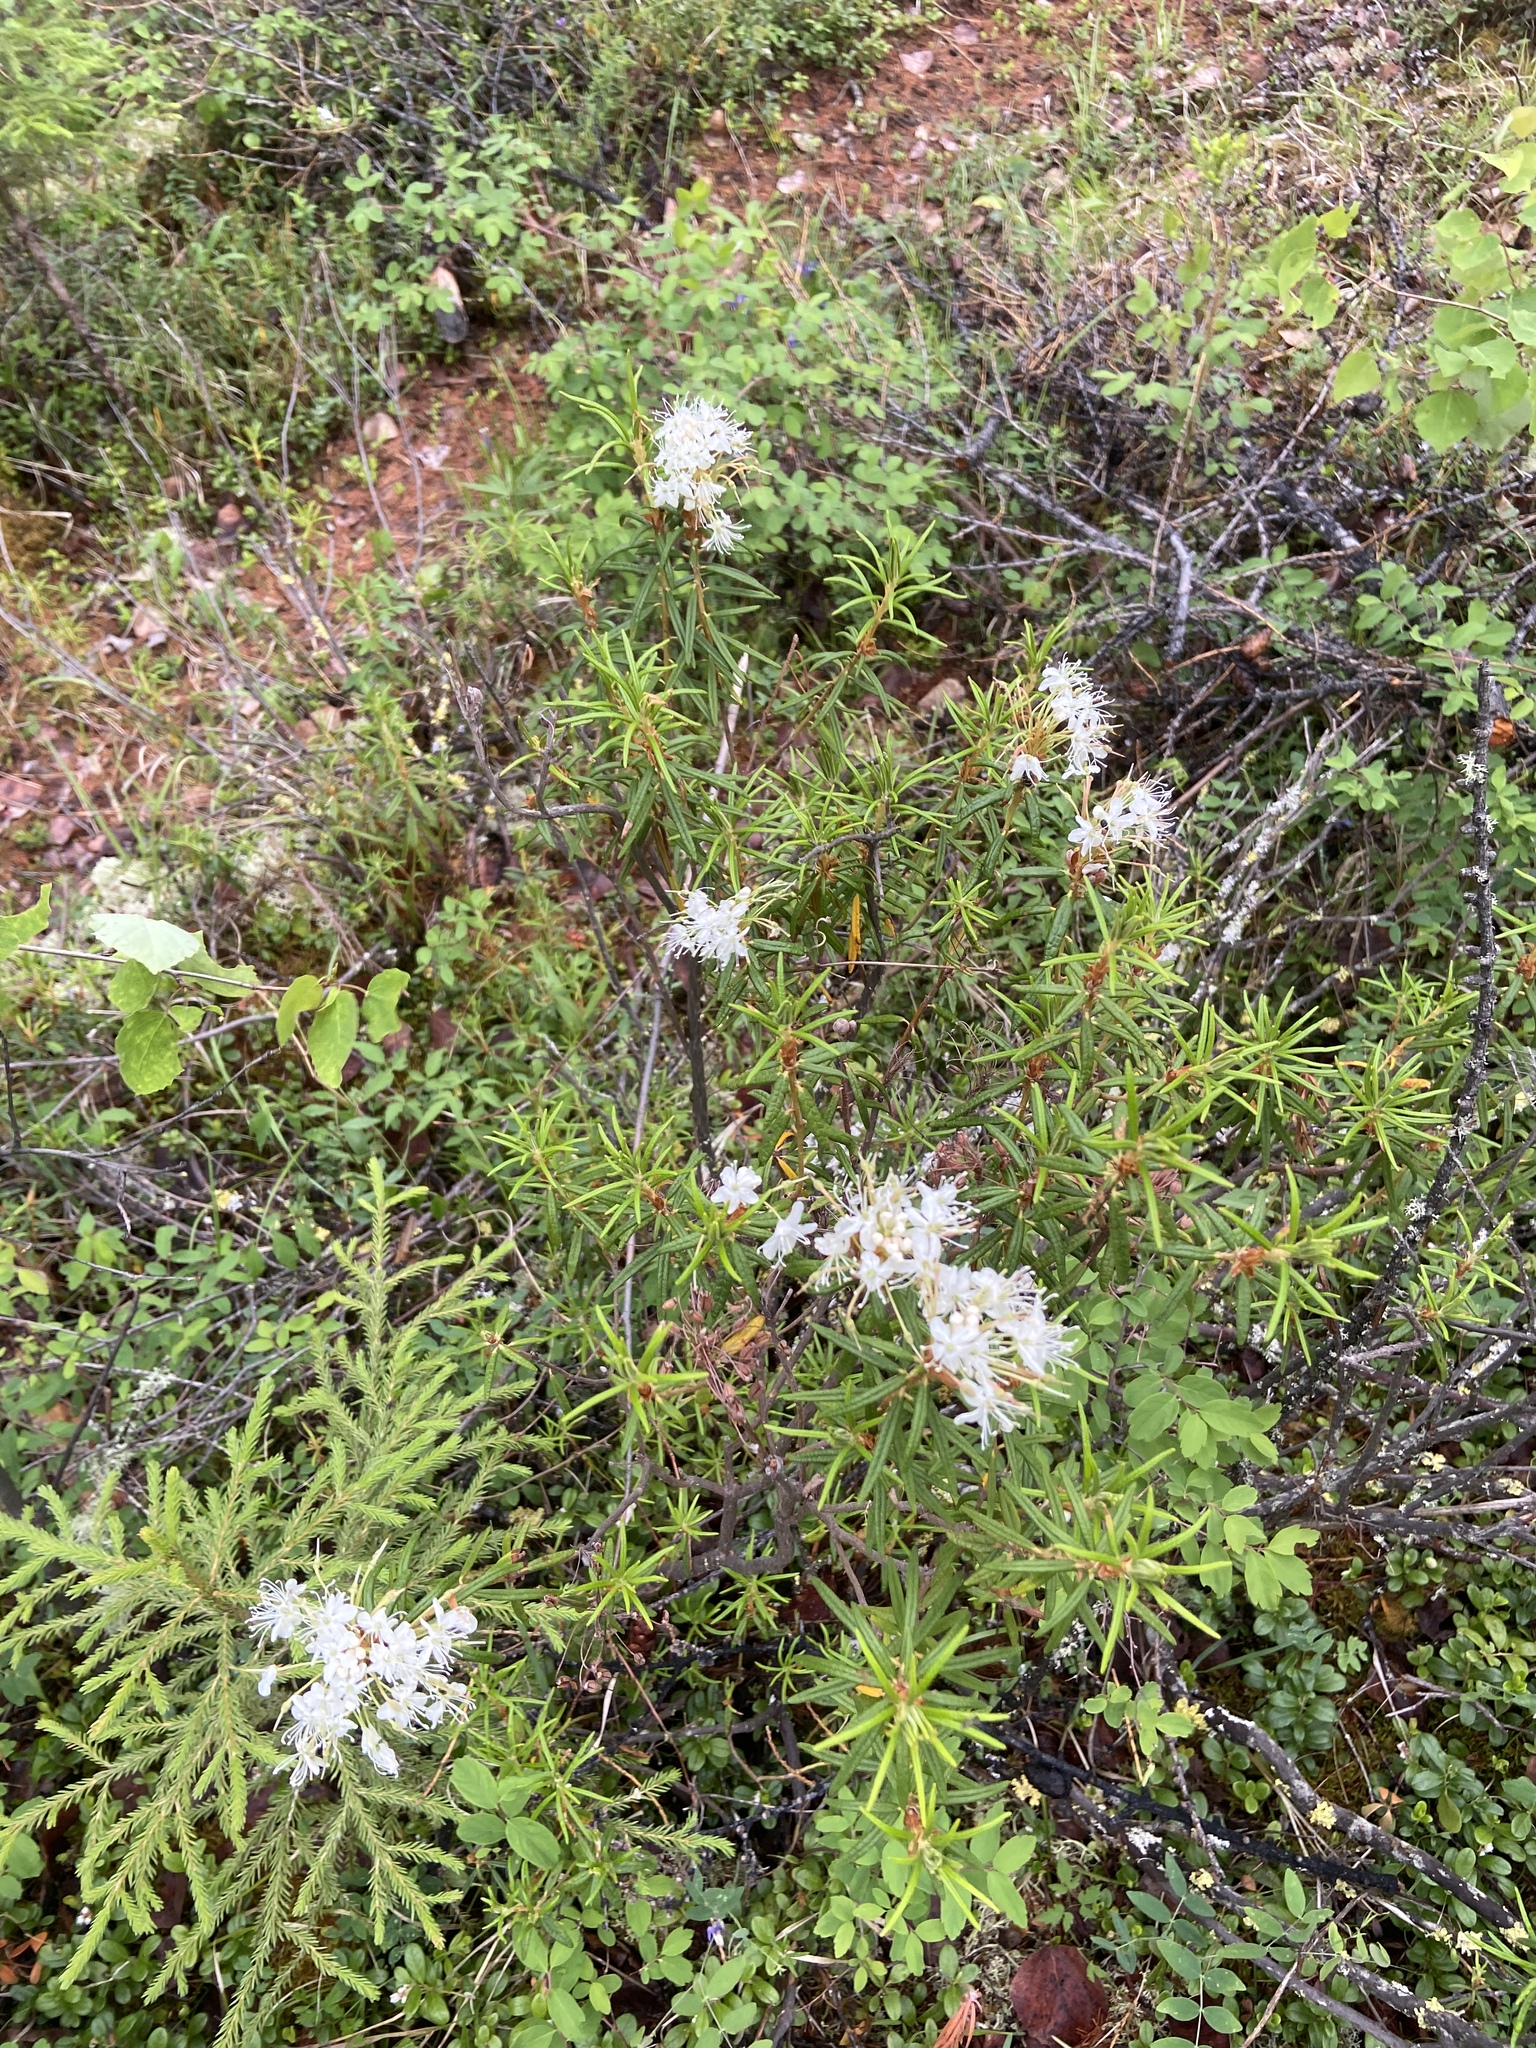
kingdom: Plantae
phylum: Tracheophyta
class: Magnoliopsida
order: Ericales
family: Ericaceae
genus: Rhododendron
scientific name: Rhododendron tomentosum
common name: Marsh labrador tea
